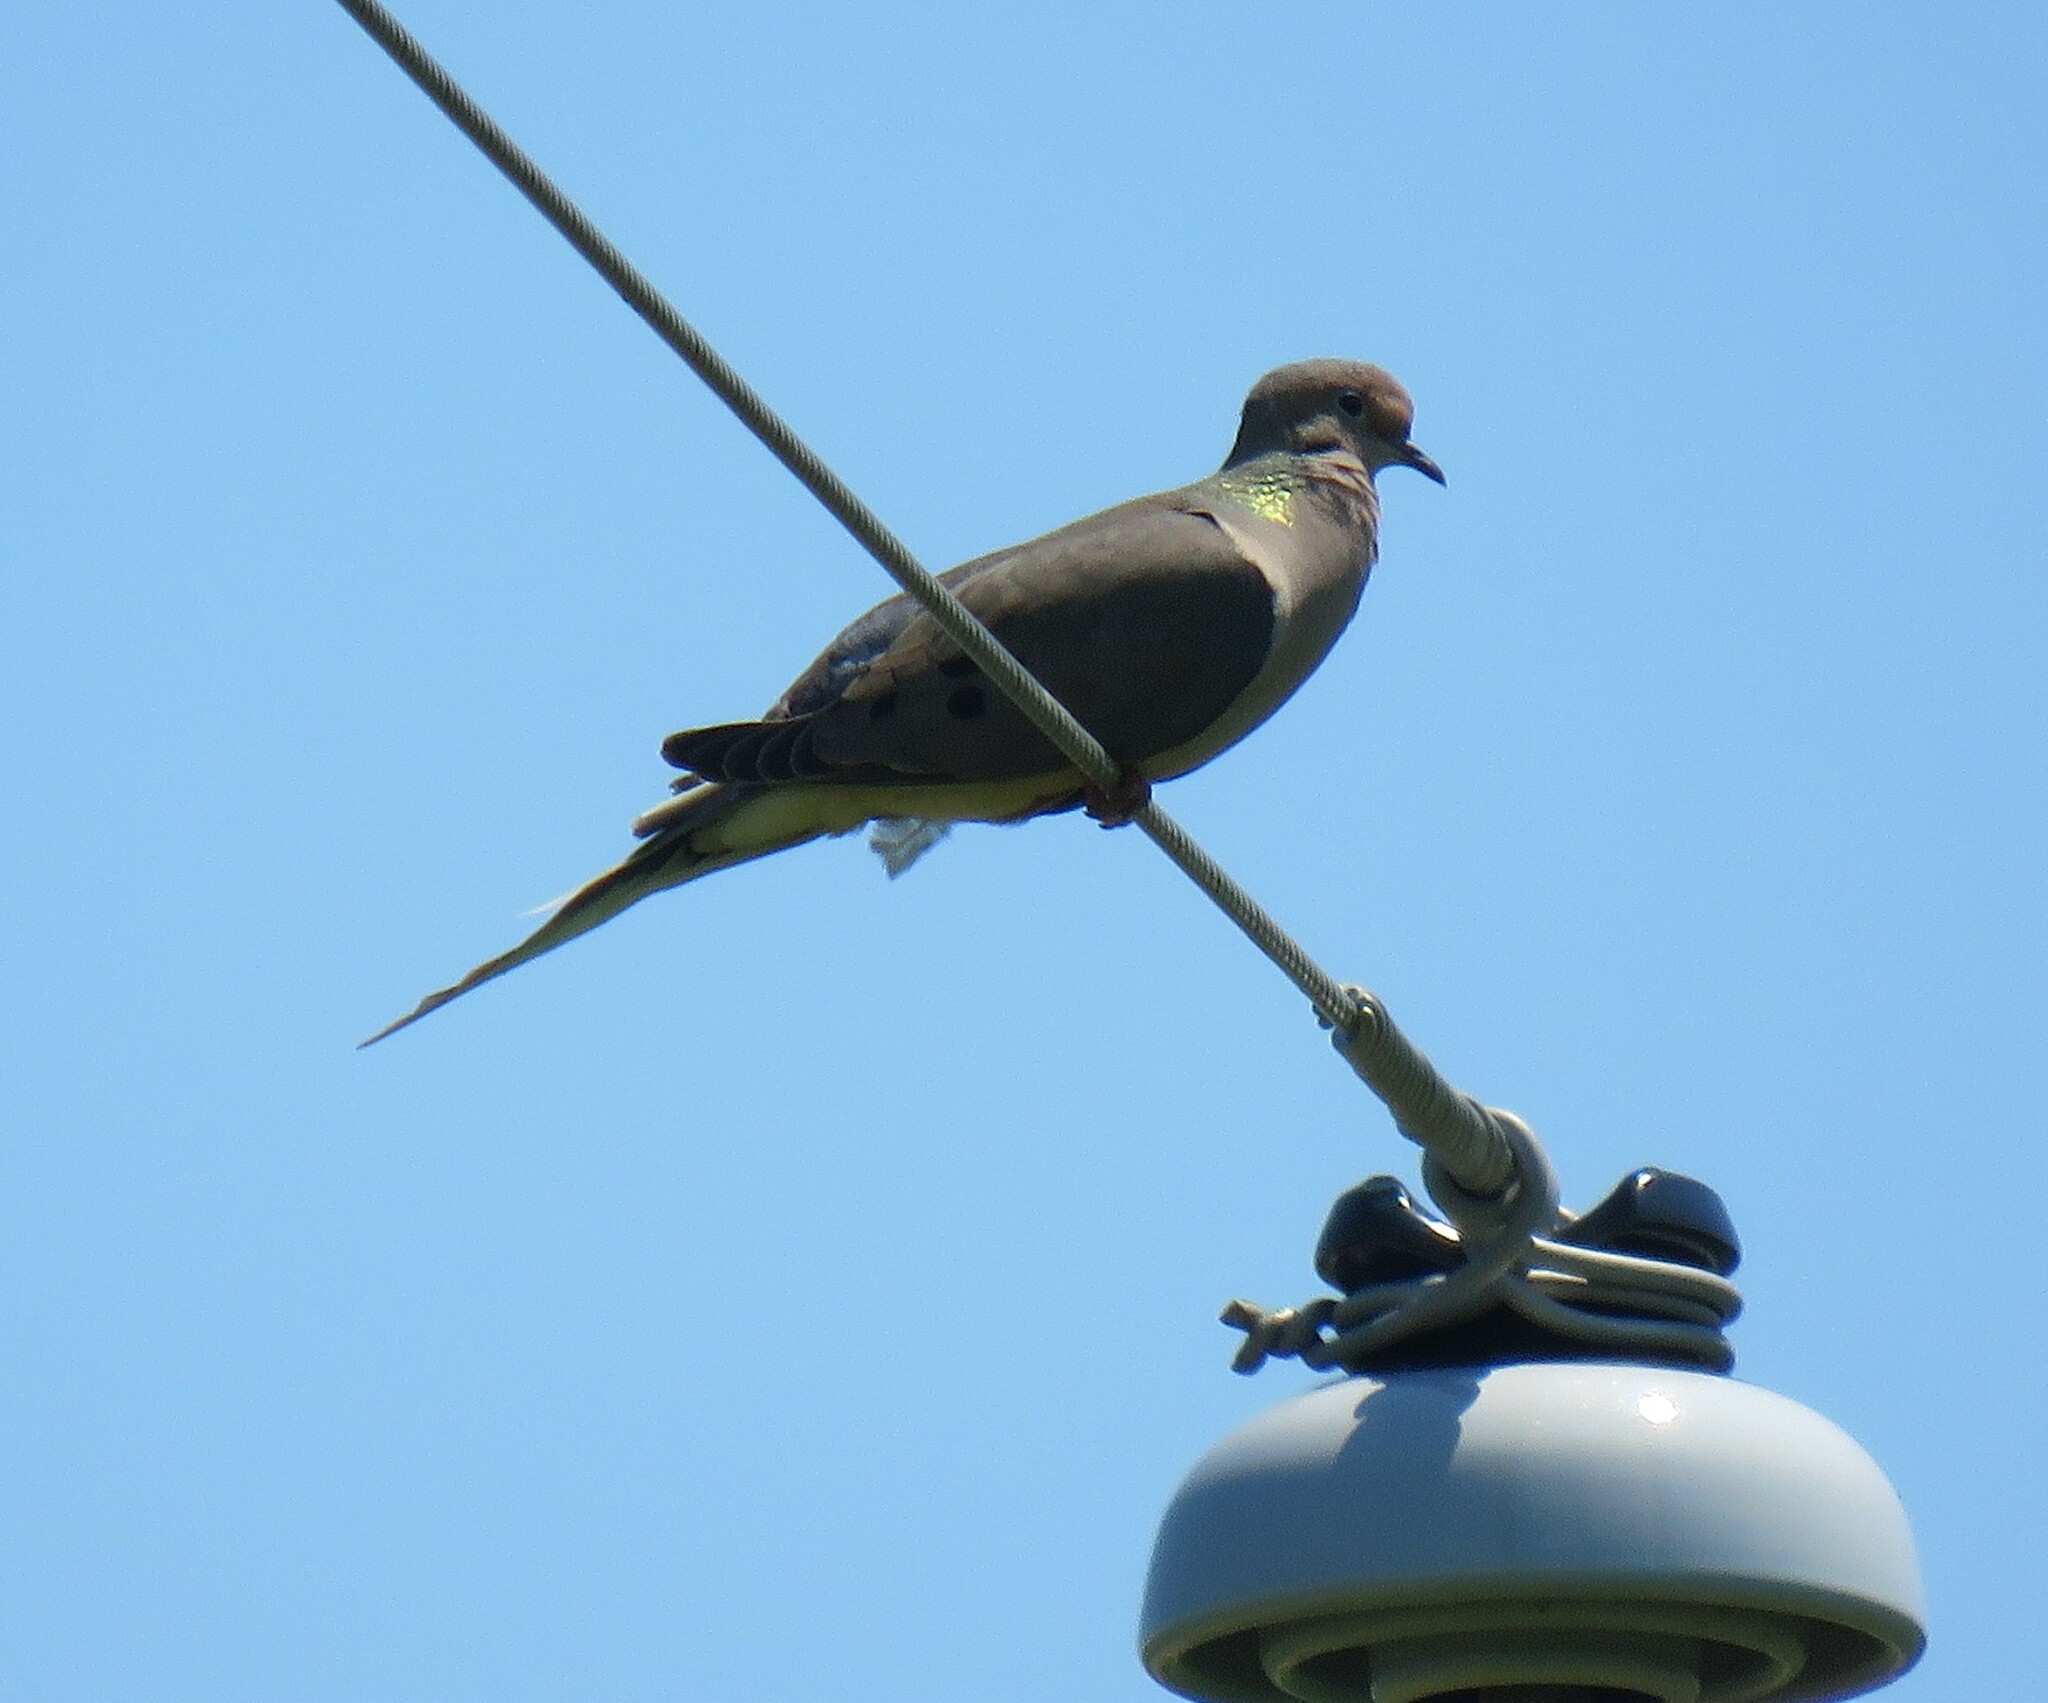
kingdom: Animalia
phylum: Chordata
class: Aves
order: Columbiformes
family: Columbidae
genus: Zenaida
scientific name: Zenaida macroura
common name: Mourning dove
